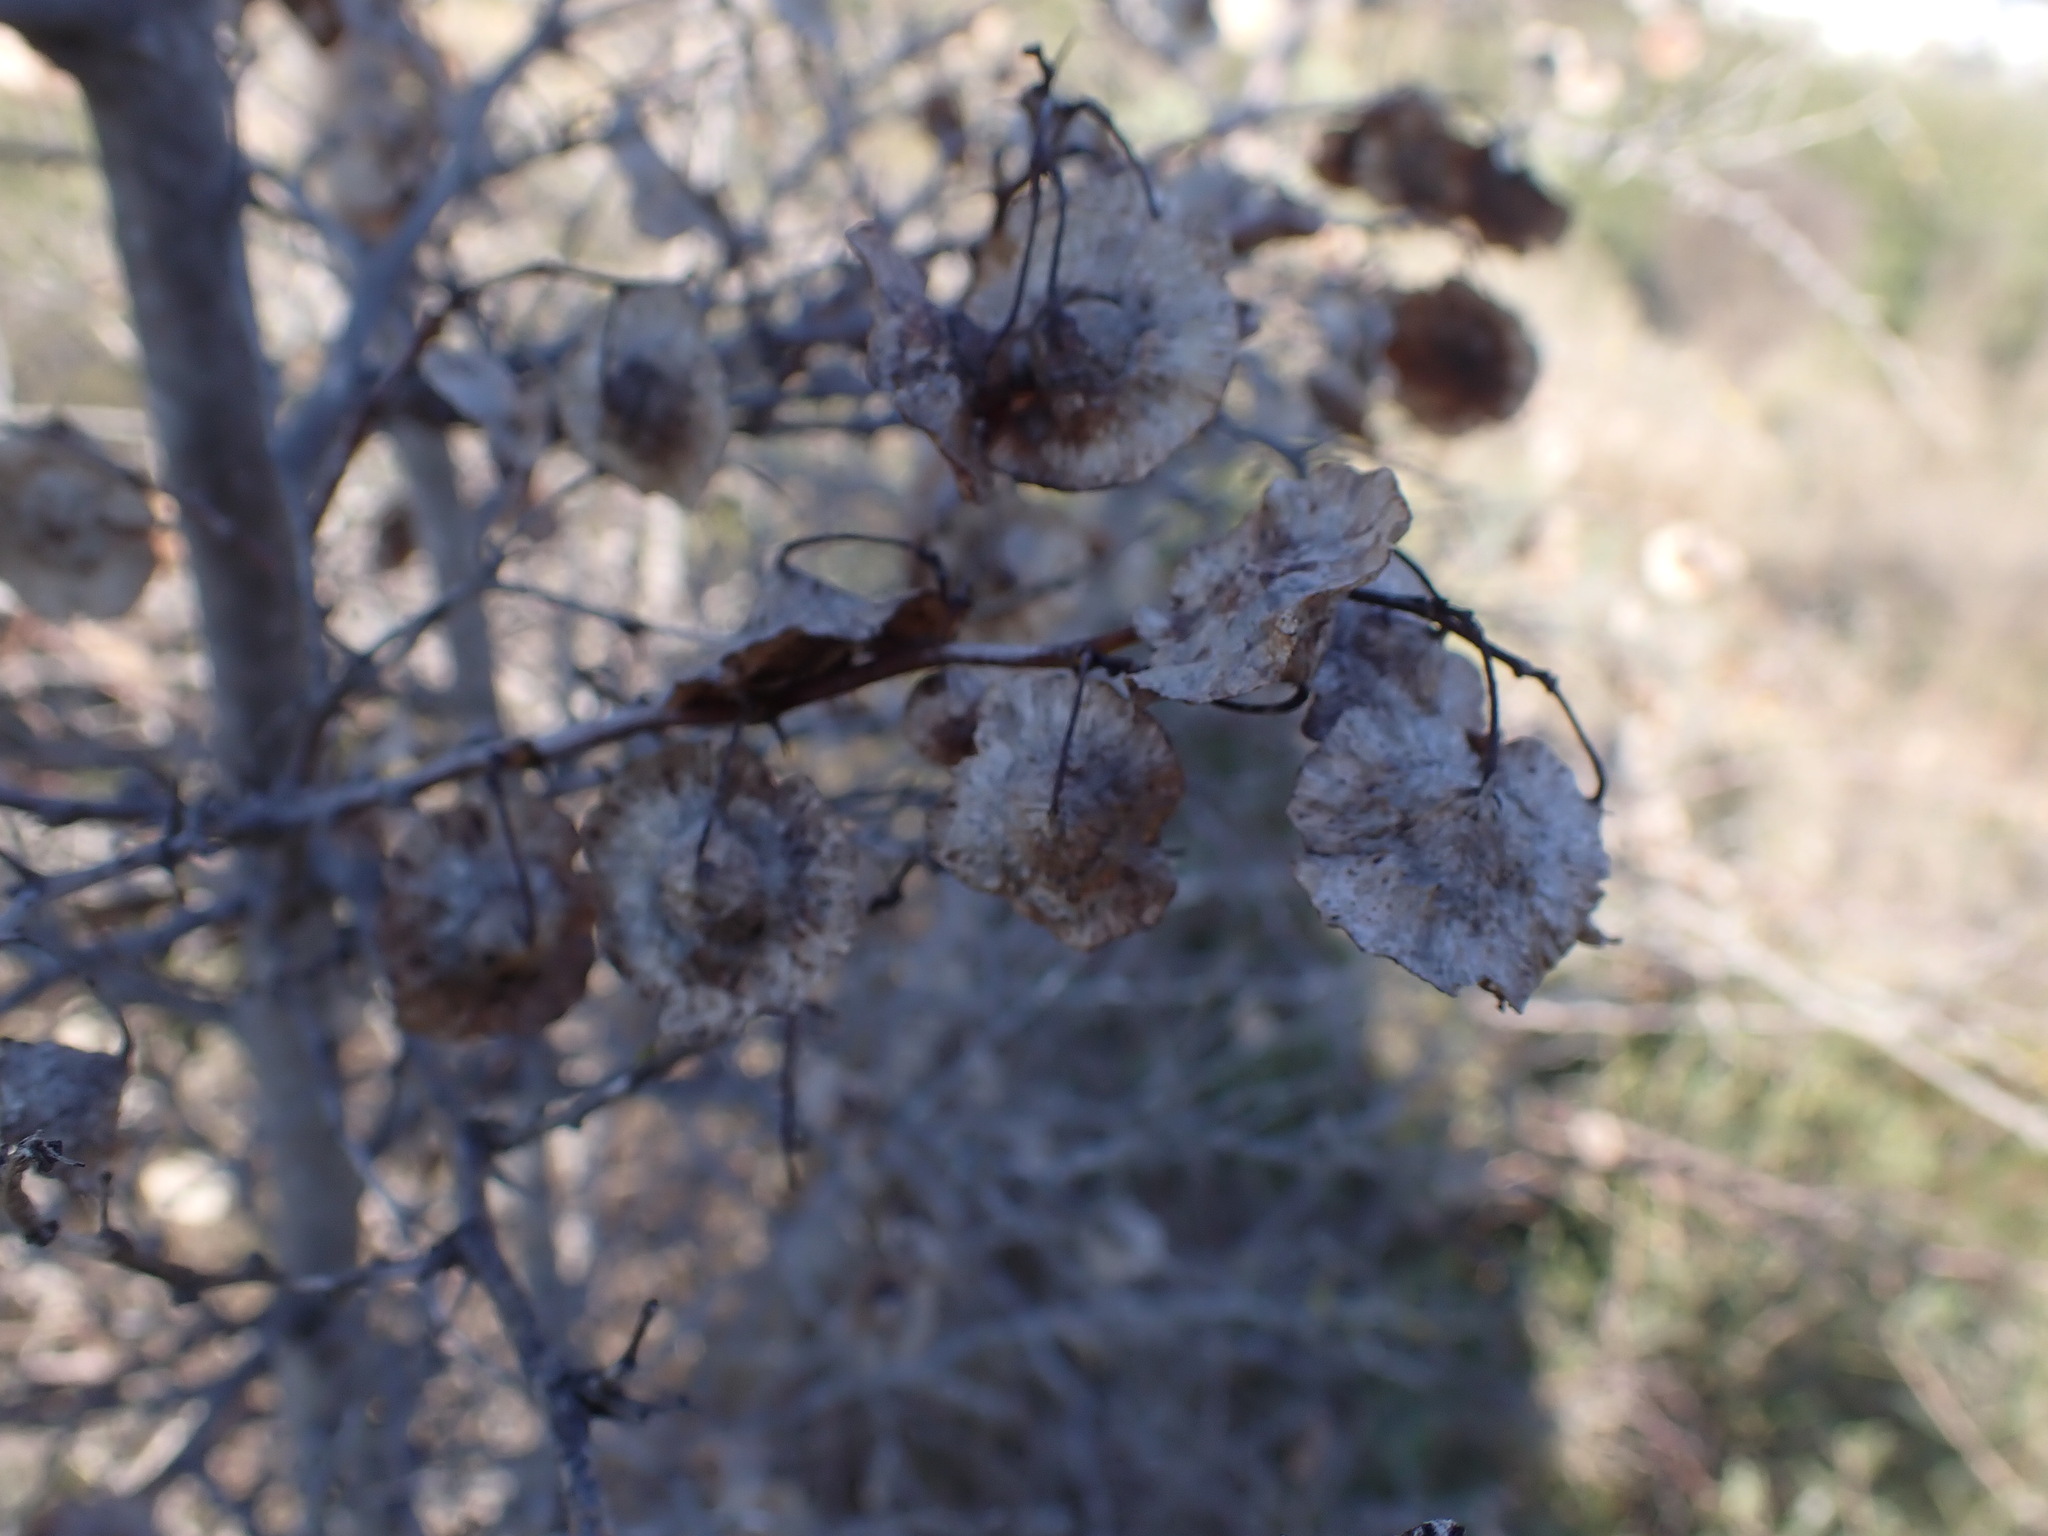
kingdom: Plantae
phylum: Tracheophyta
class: Magnoliopsida
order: Rosales
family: Rhamnaceae
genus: Paliurus
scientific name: Paliurus spina-christi
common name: Jeruselem thorn
